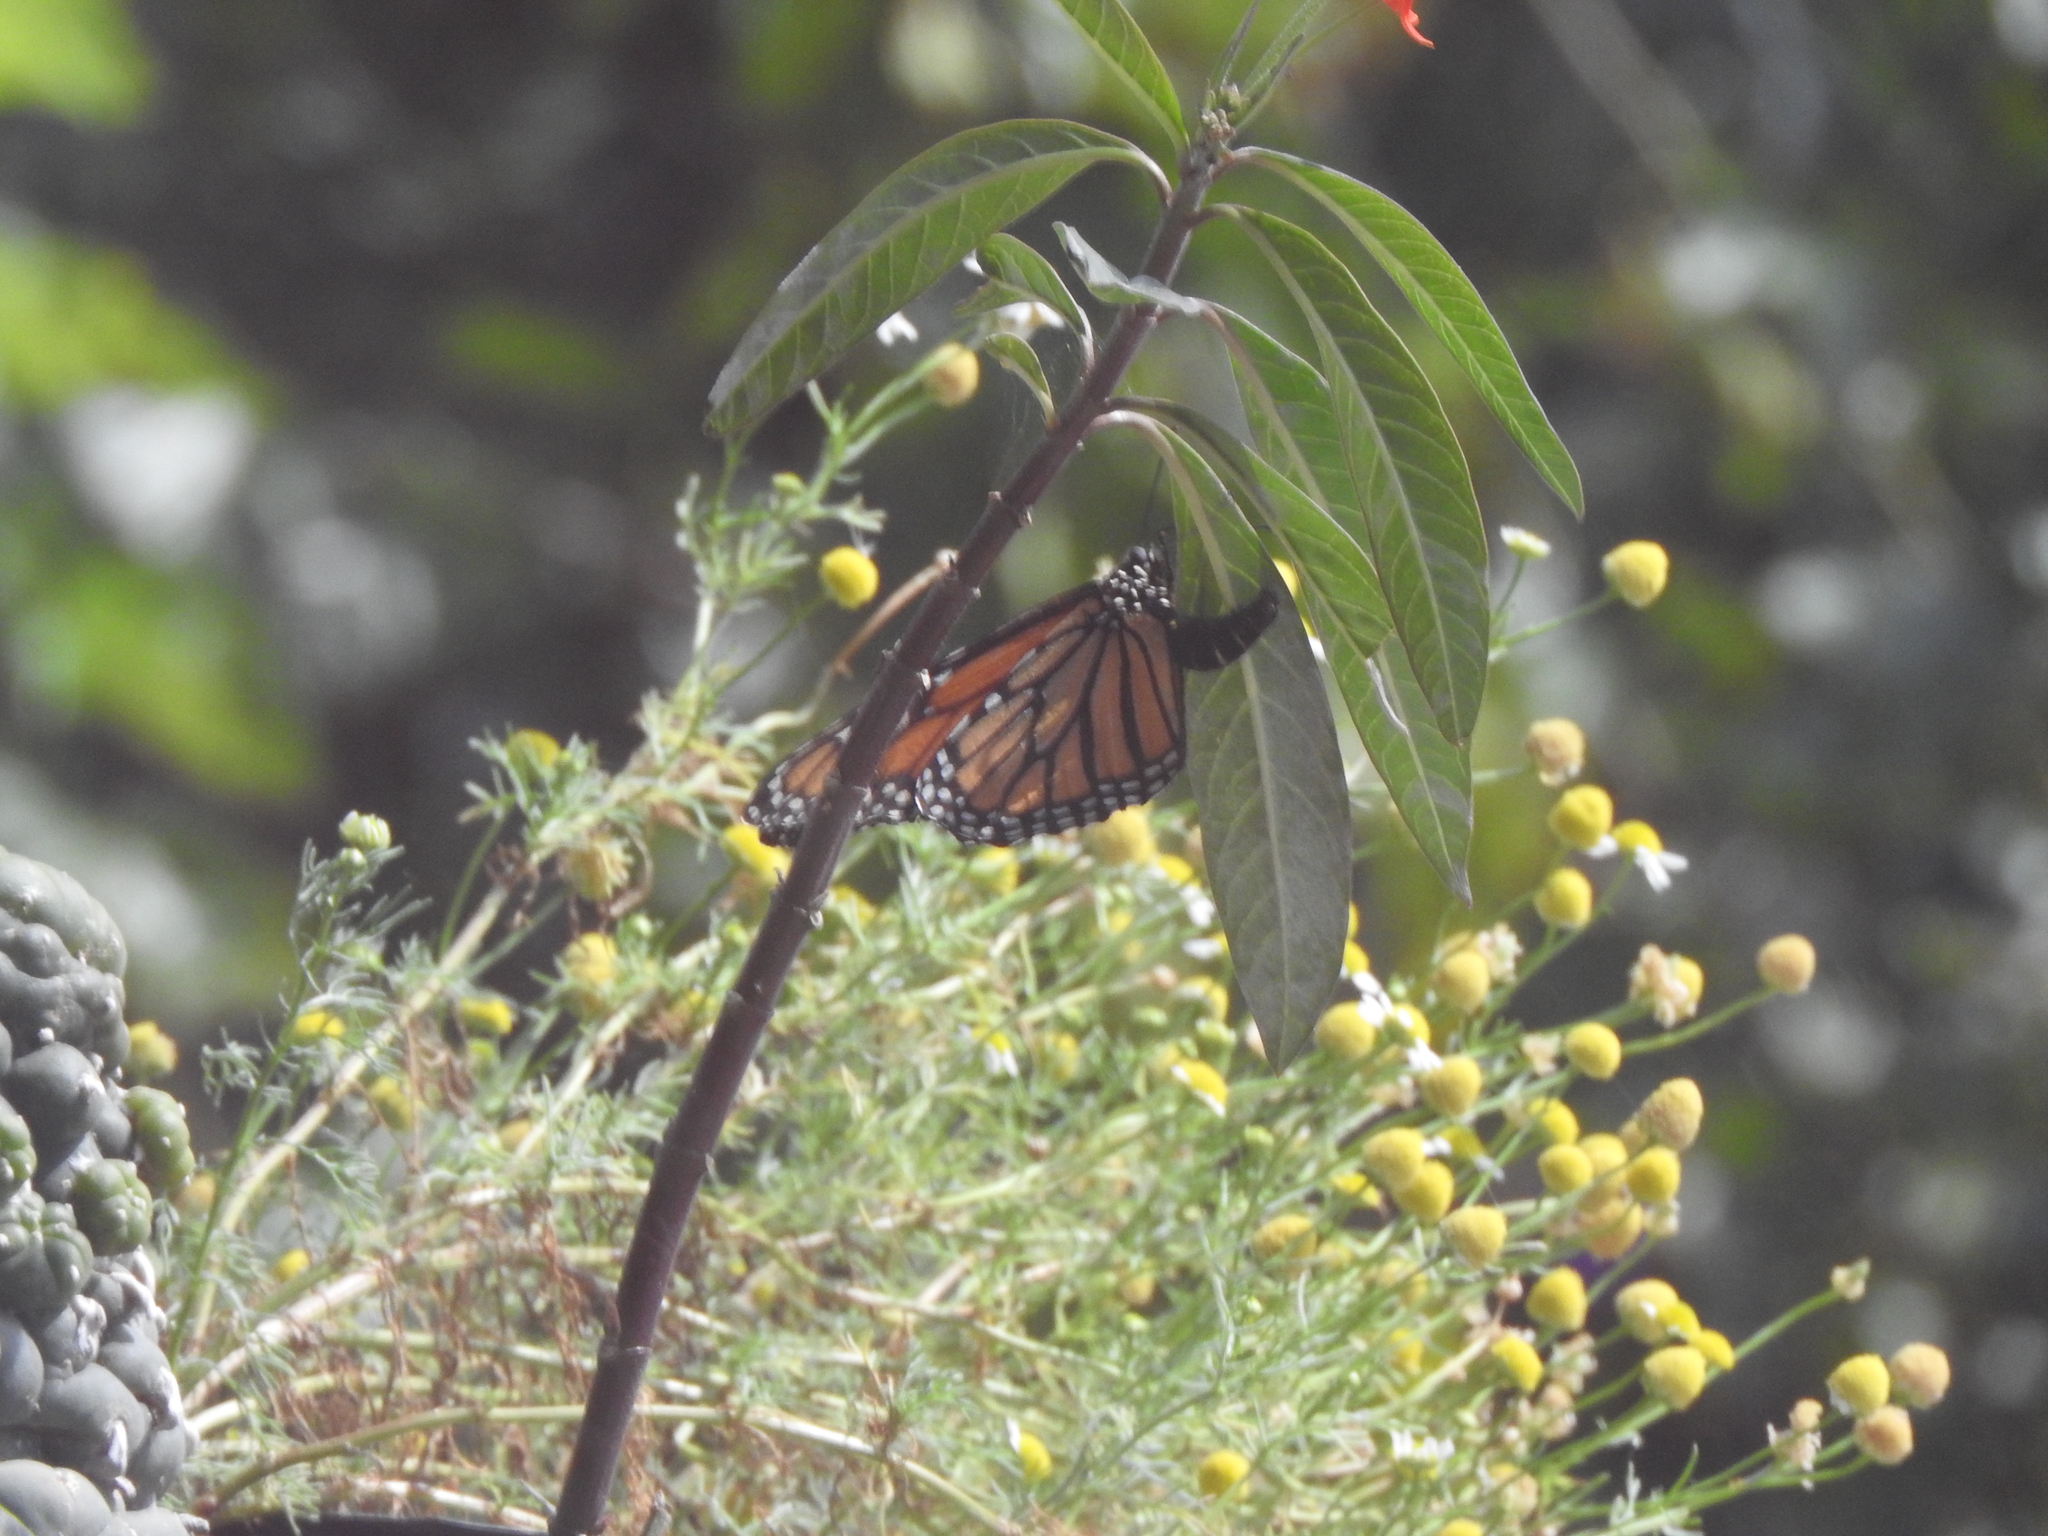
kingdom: Animalia
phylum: Arthropoda
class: Insecta
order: Lepidoptera
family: Nymphalidae
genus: Danaus
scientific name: Danaus plexippus
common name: Monarch
